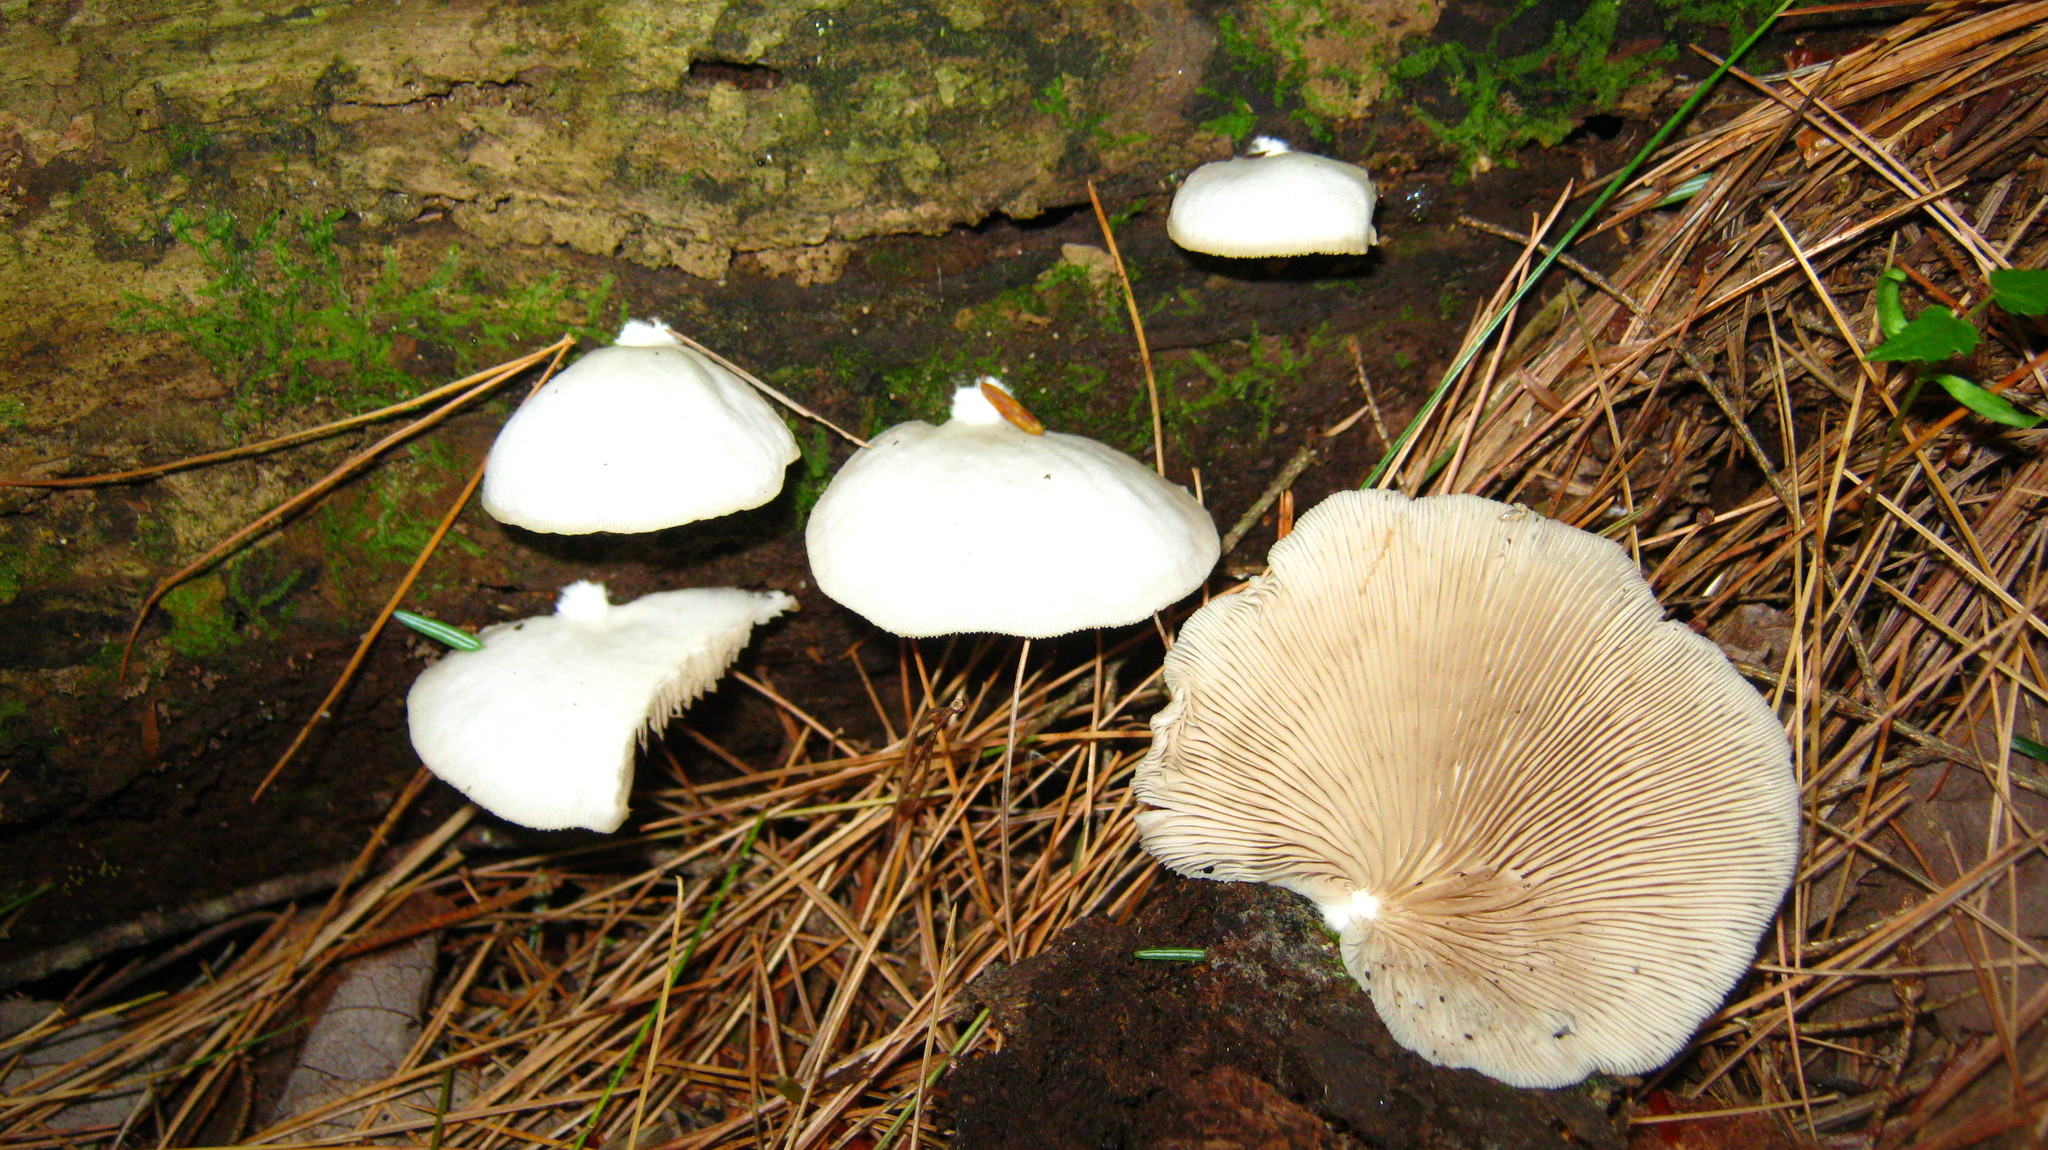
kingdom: Fungi
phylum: Basidiomycota
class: Agaricomycetes
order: Agaricales
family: Crepidotaceae
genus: Crepidotus
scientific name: Crepidotus applanatus
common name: Flat crep
